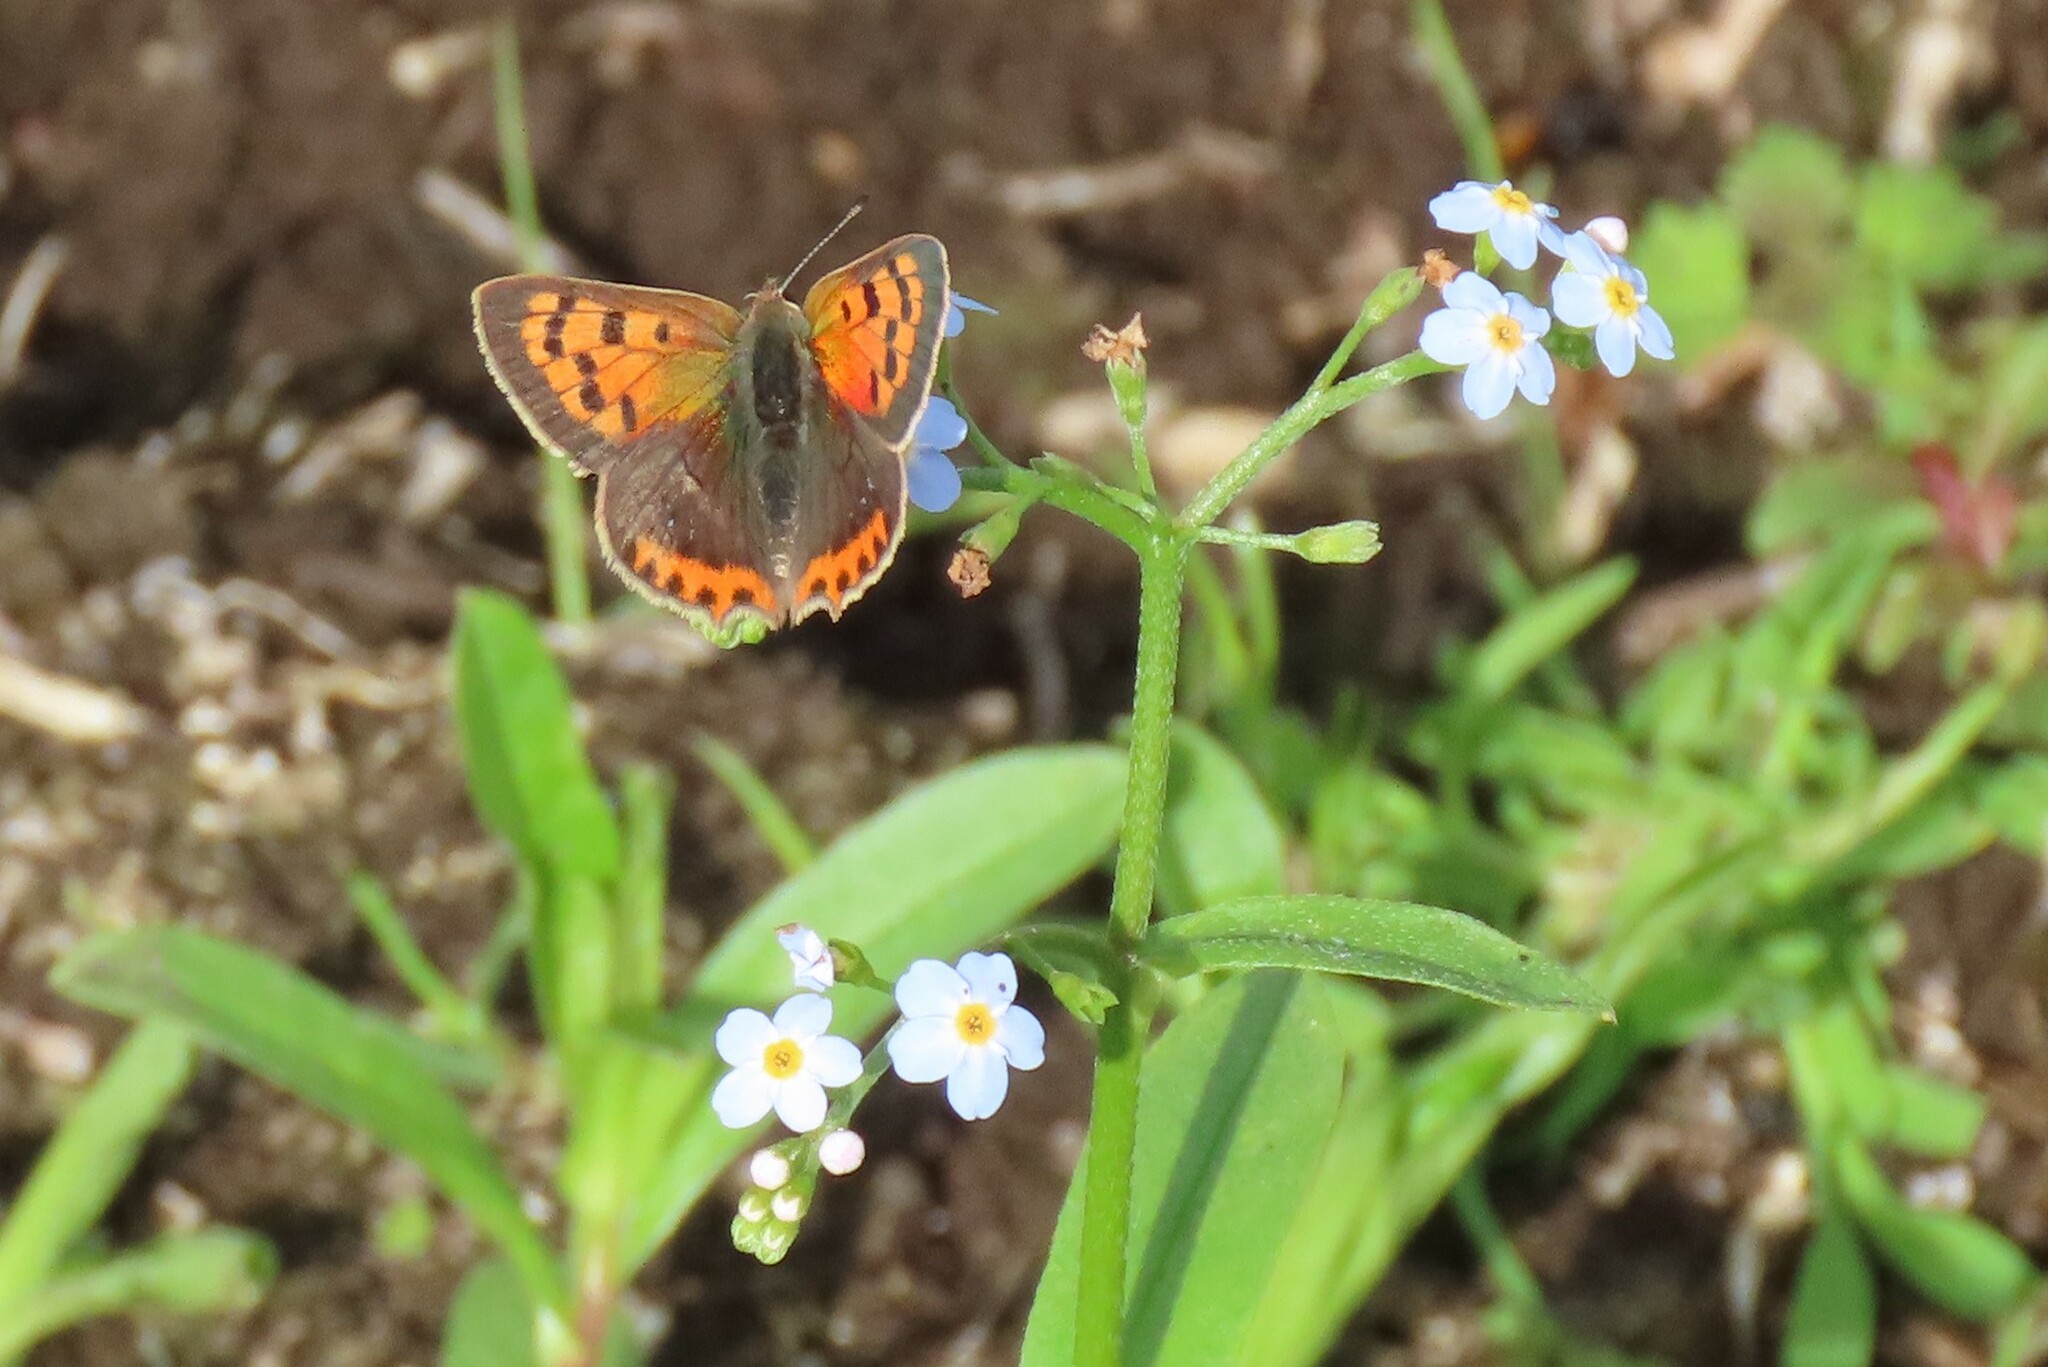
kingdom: Animalia
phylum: Arthropoda
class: Insecta
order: Lepidoptera
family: Lycaenidae
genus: Lycaena
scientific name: Lycaena phlaeas
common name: Small copper
